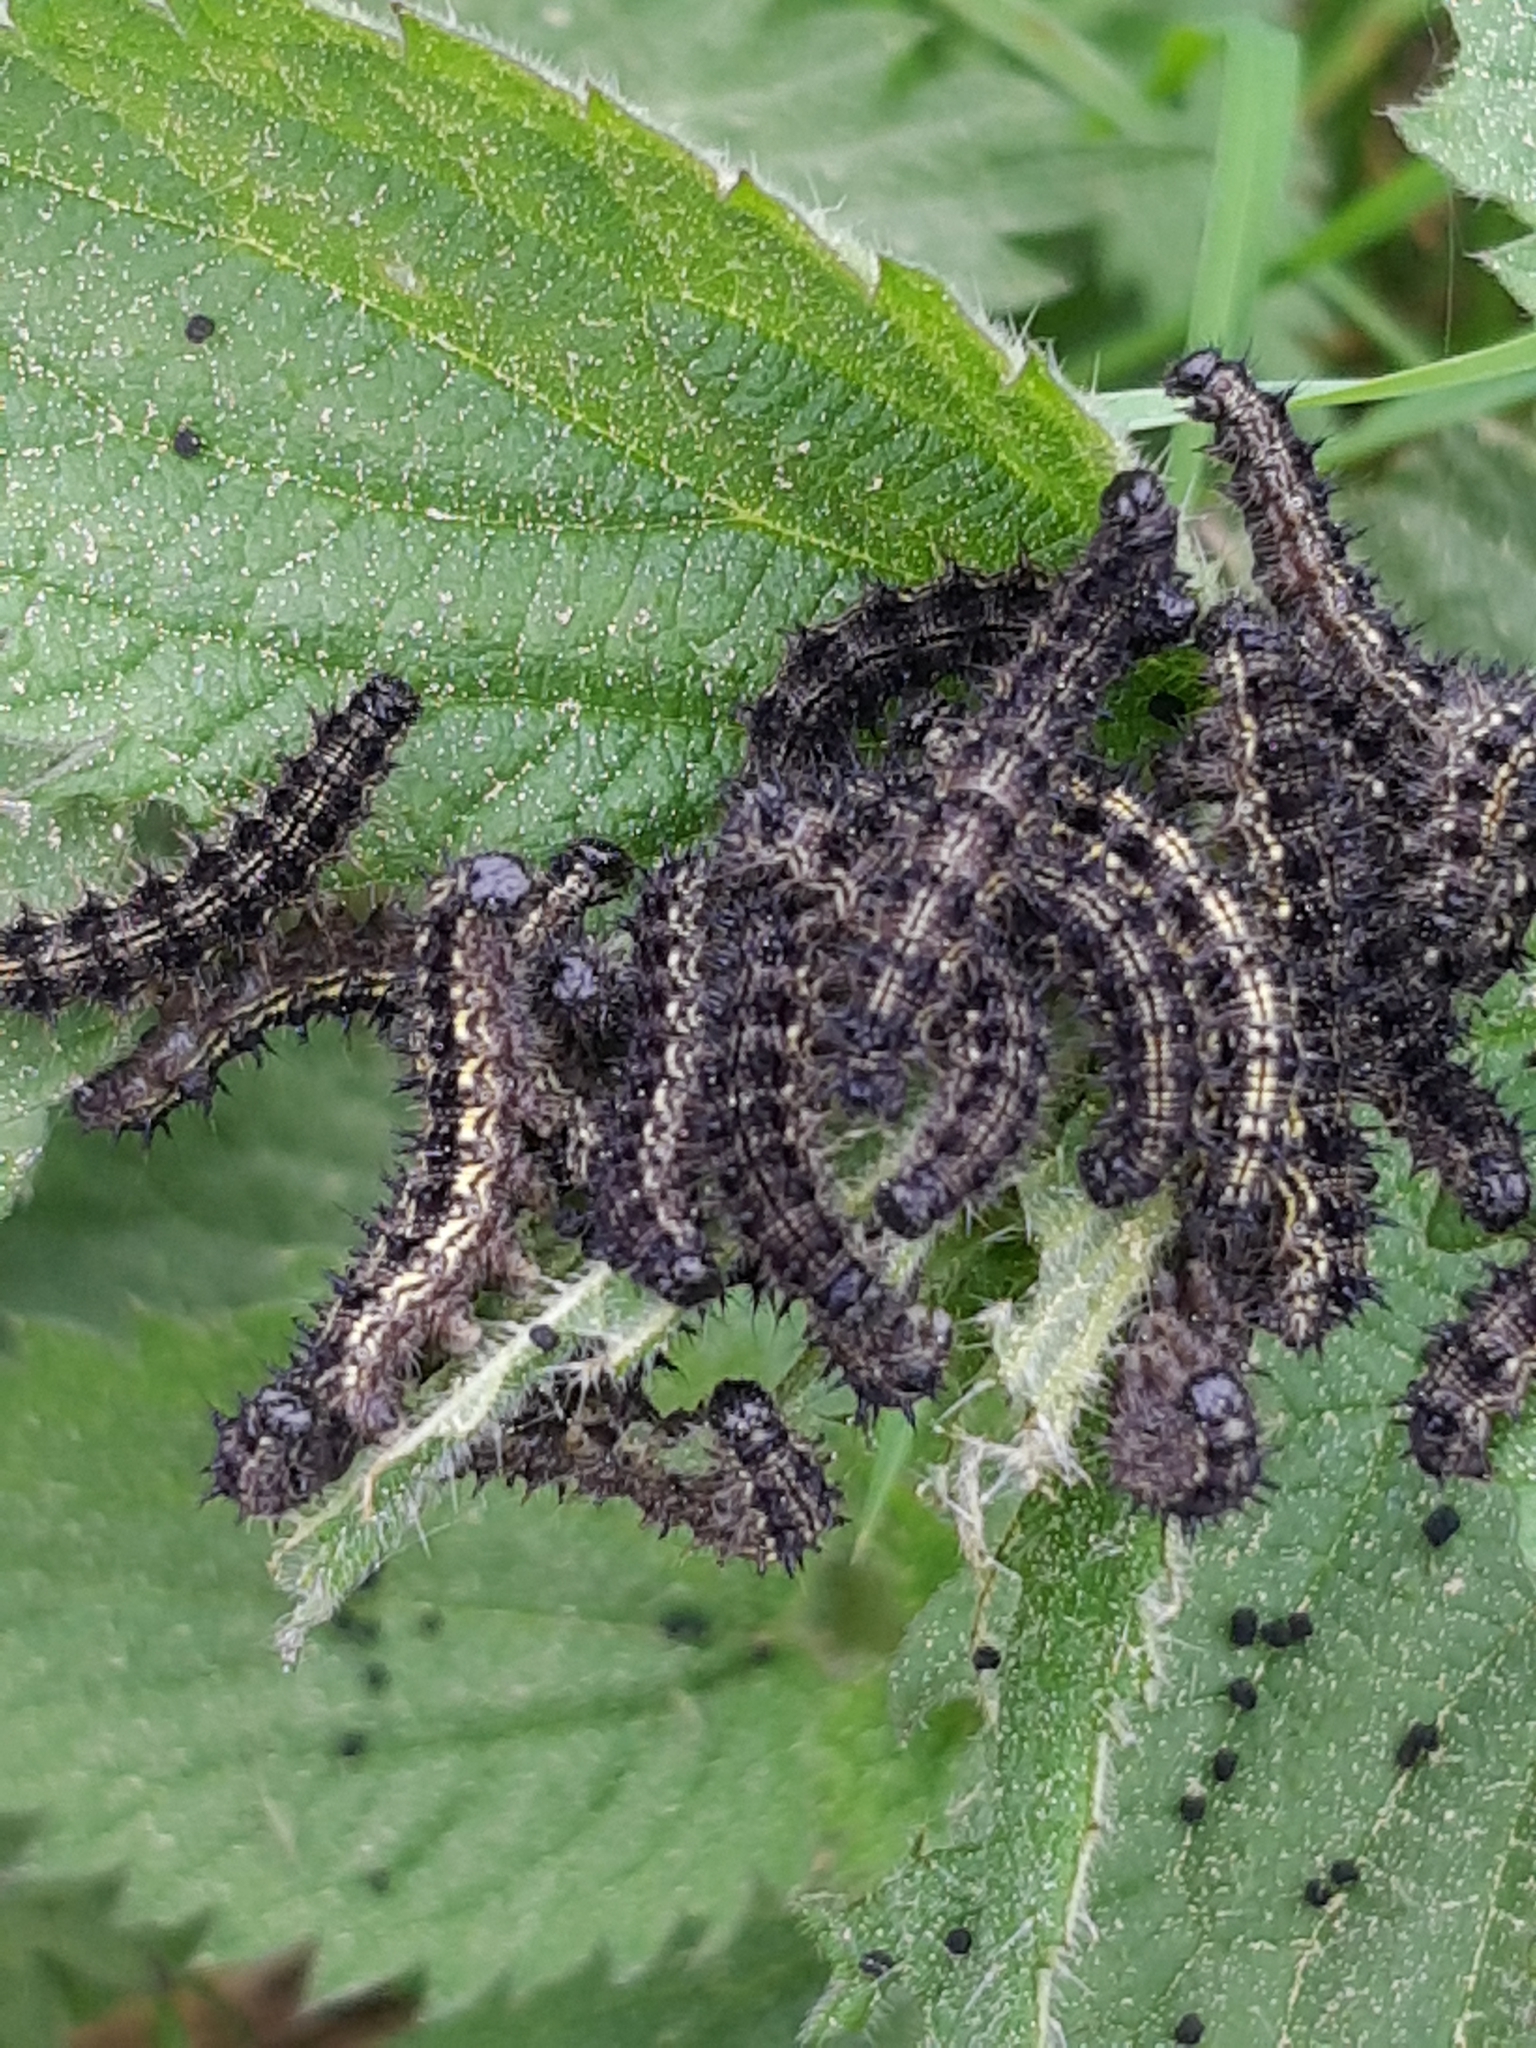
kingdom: Animalia
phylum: Arthropoda
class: Insecta
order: Lepidoptera
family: Nymphalidae
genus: Aglais
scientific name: Aglais urticae
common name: Small tortoiseshell
